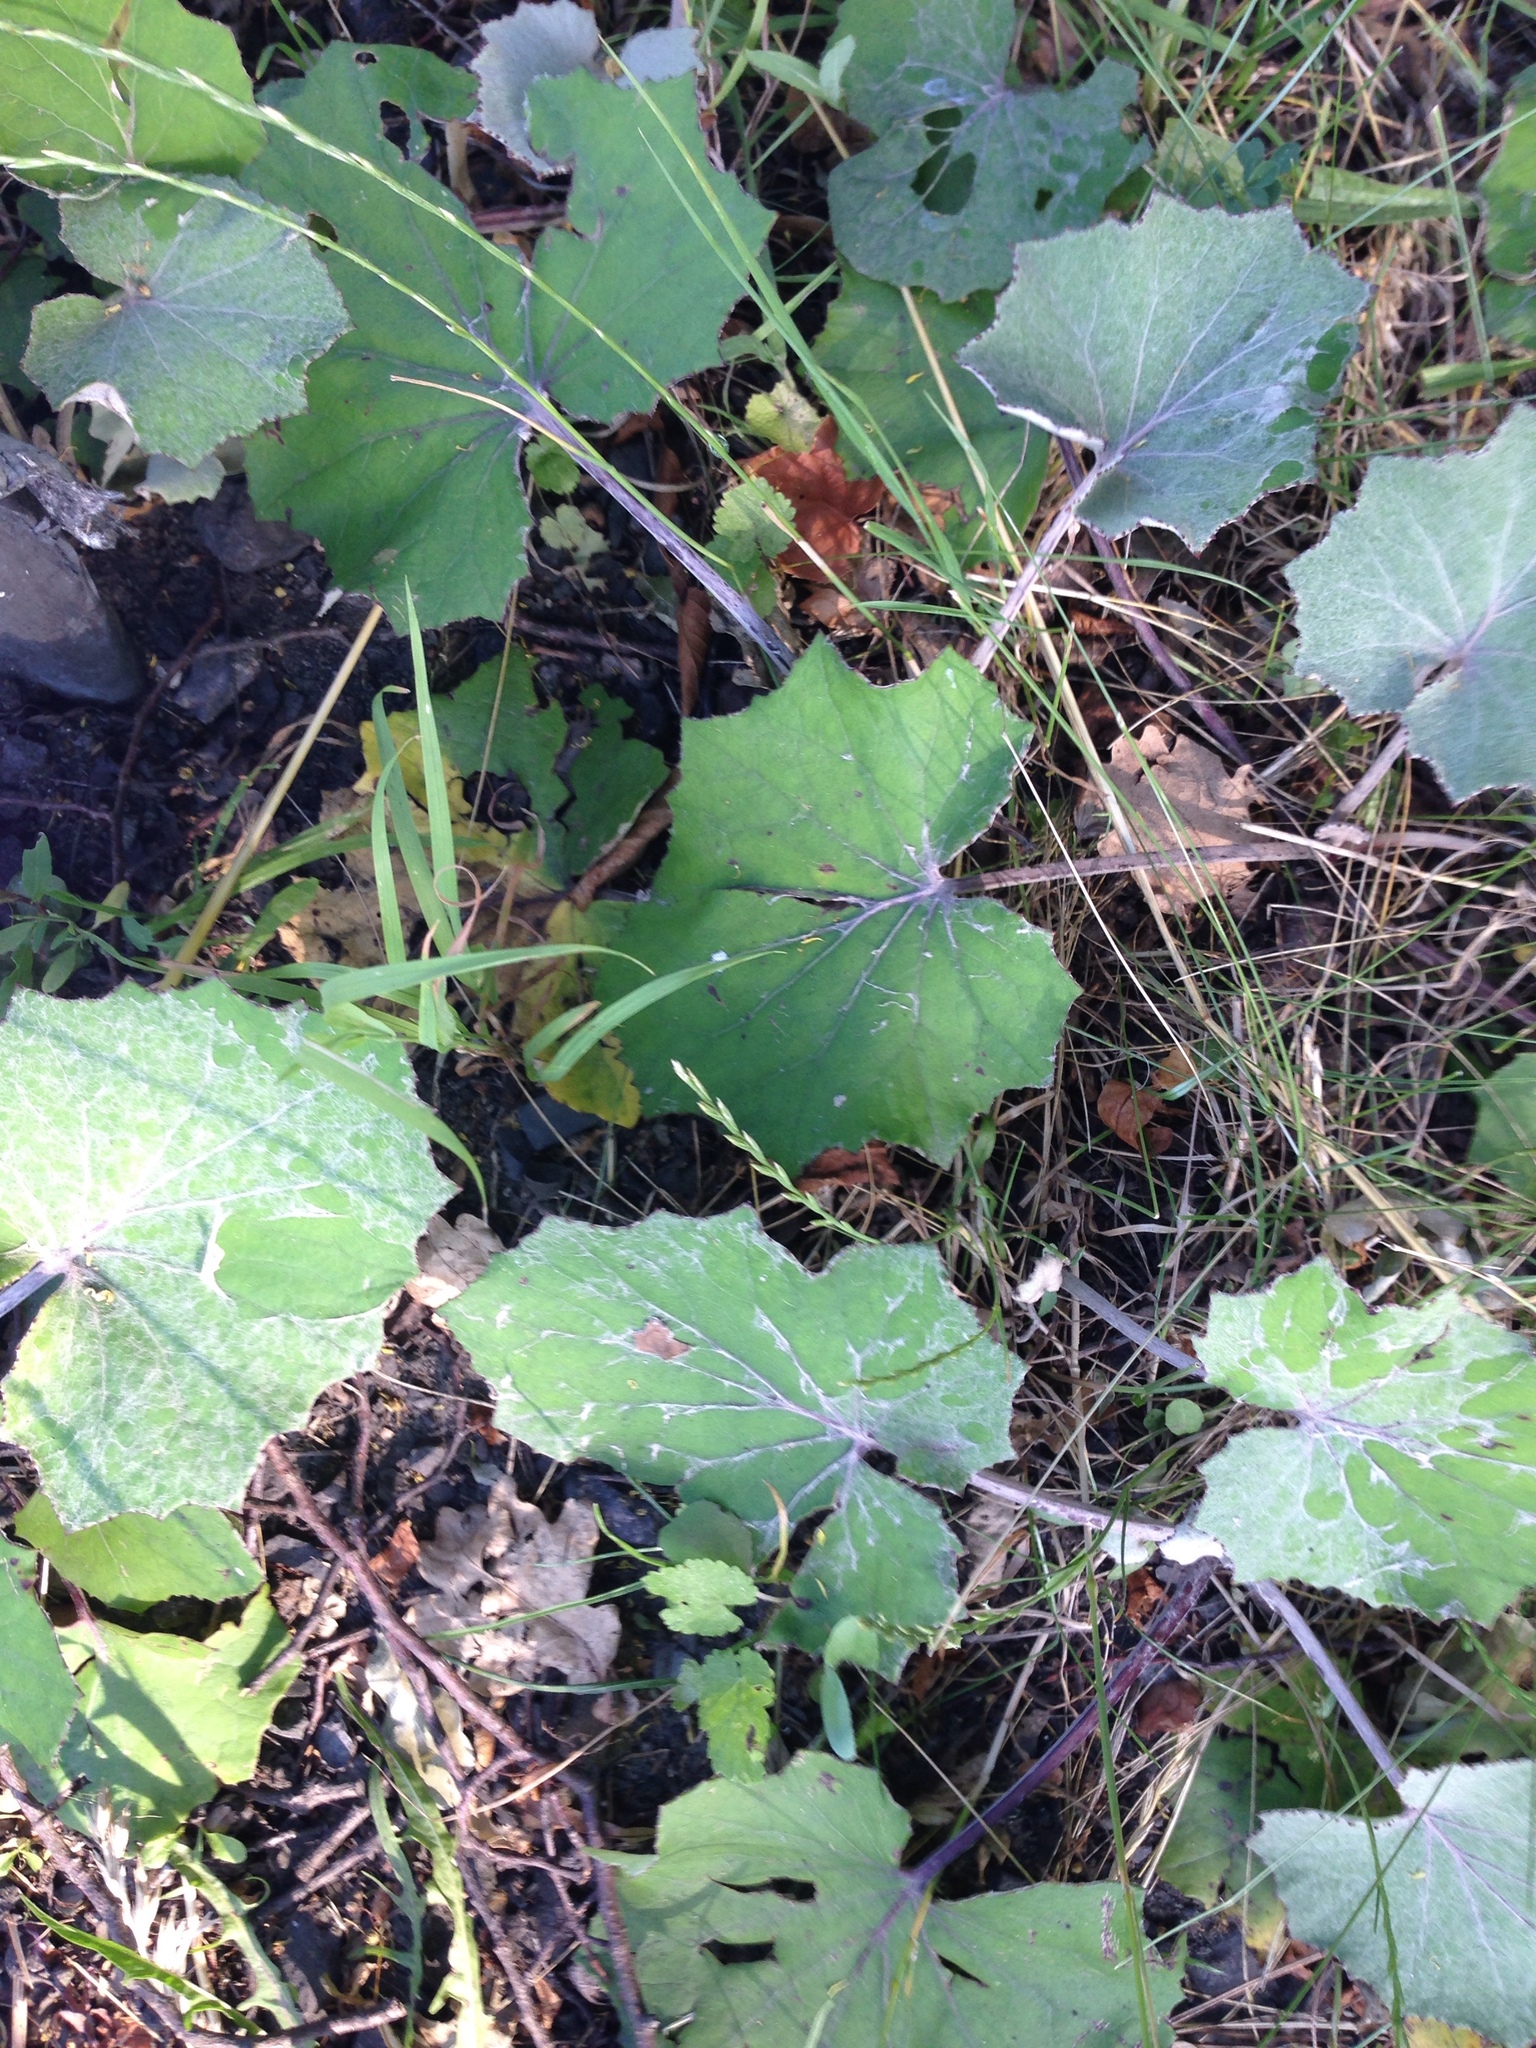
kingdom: Plantae
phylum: Tracheophyta
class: Magnoliopsida
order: Asterales
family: Asteraceae
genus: Tussilago
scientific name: Tussilago farfara
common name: Coltsfoot
